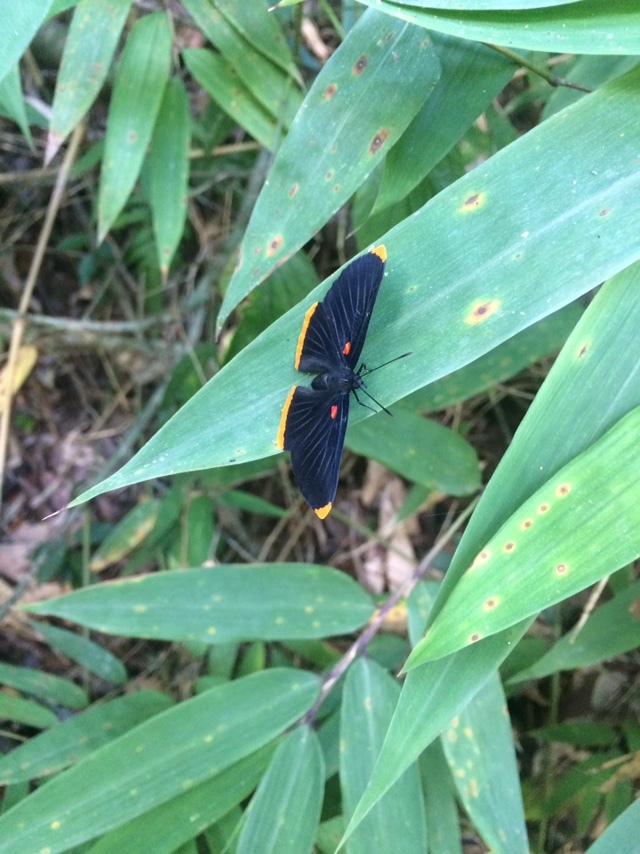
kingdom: Animalia
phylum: Arthropoda
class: Insecta
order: Lepidoptera
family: Lycaenidae
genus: Melanis
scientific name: Melanis smithiae
